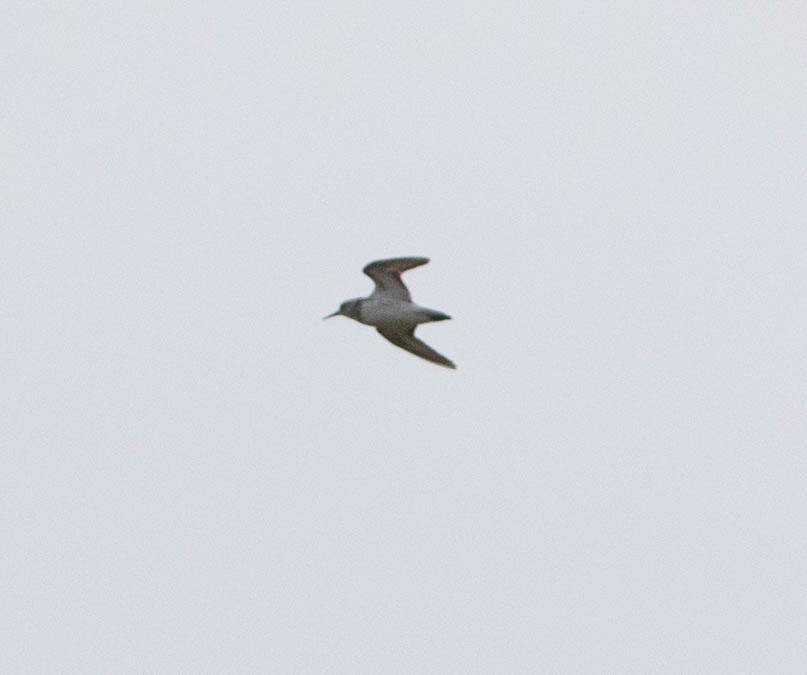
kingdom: Animalia
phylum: Chordata
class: Aves
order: Charadriiformes
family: Scolopacidae
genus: Calidris
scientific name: Calidris
